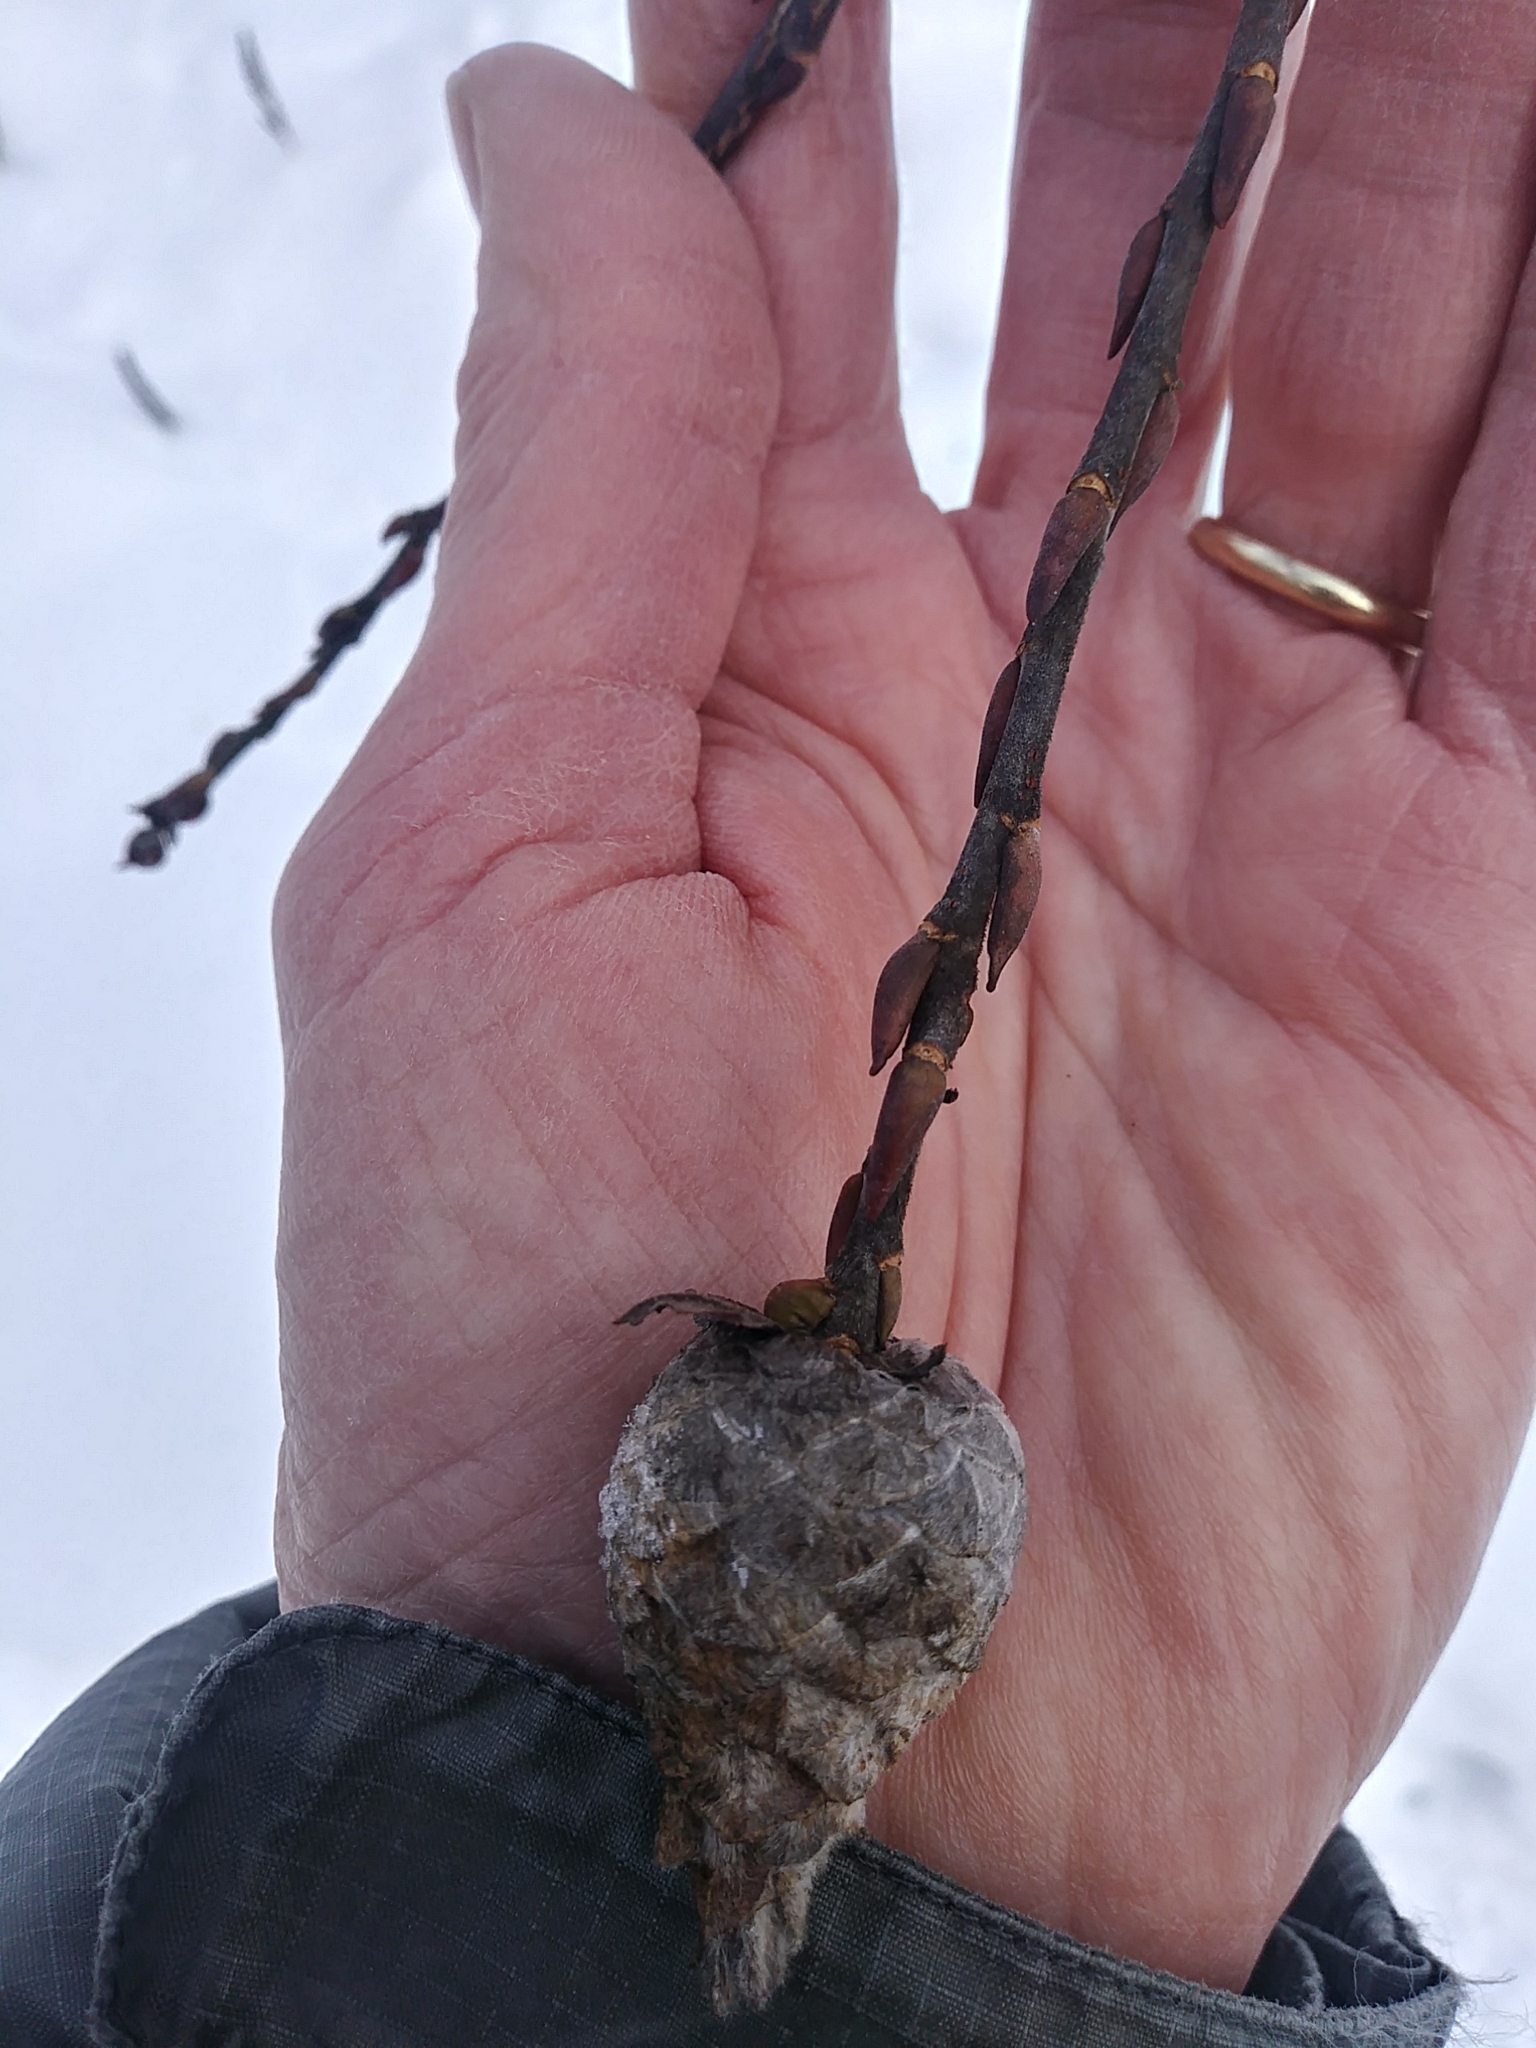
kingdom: Animalia
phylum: Arthropoda
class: Insecta
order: Diptera
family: Cecidomyiidae
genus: Rabdophaga
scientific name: Rabdophaga strobiloides
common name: Willow pinecone gall midge
